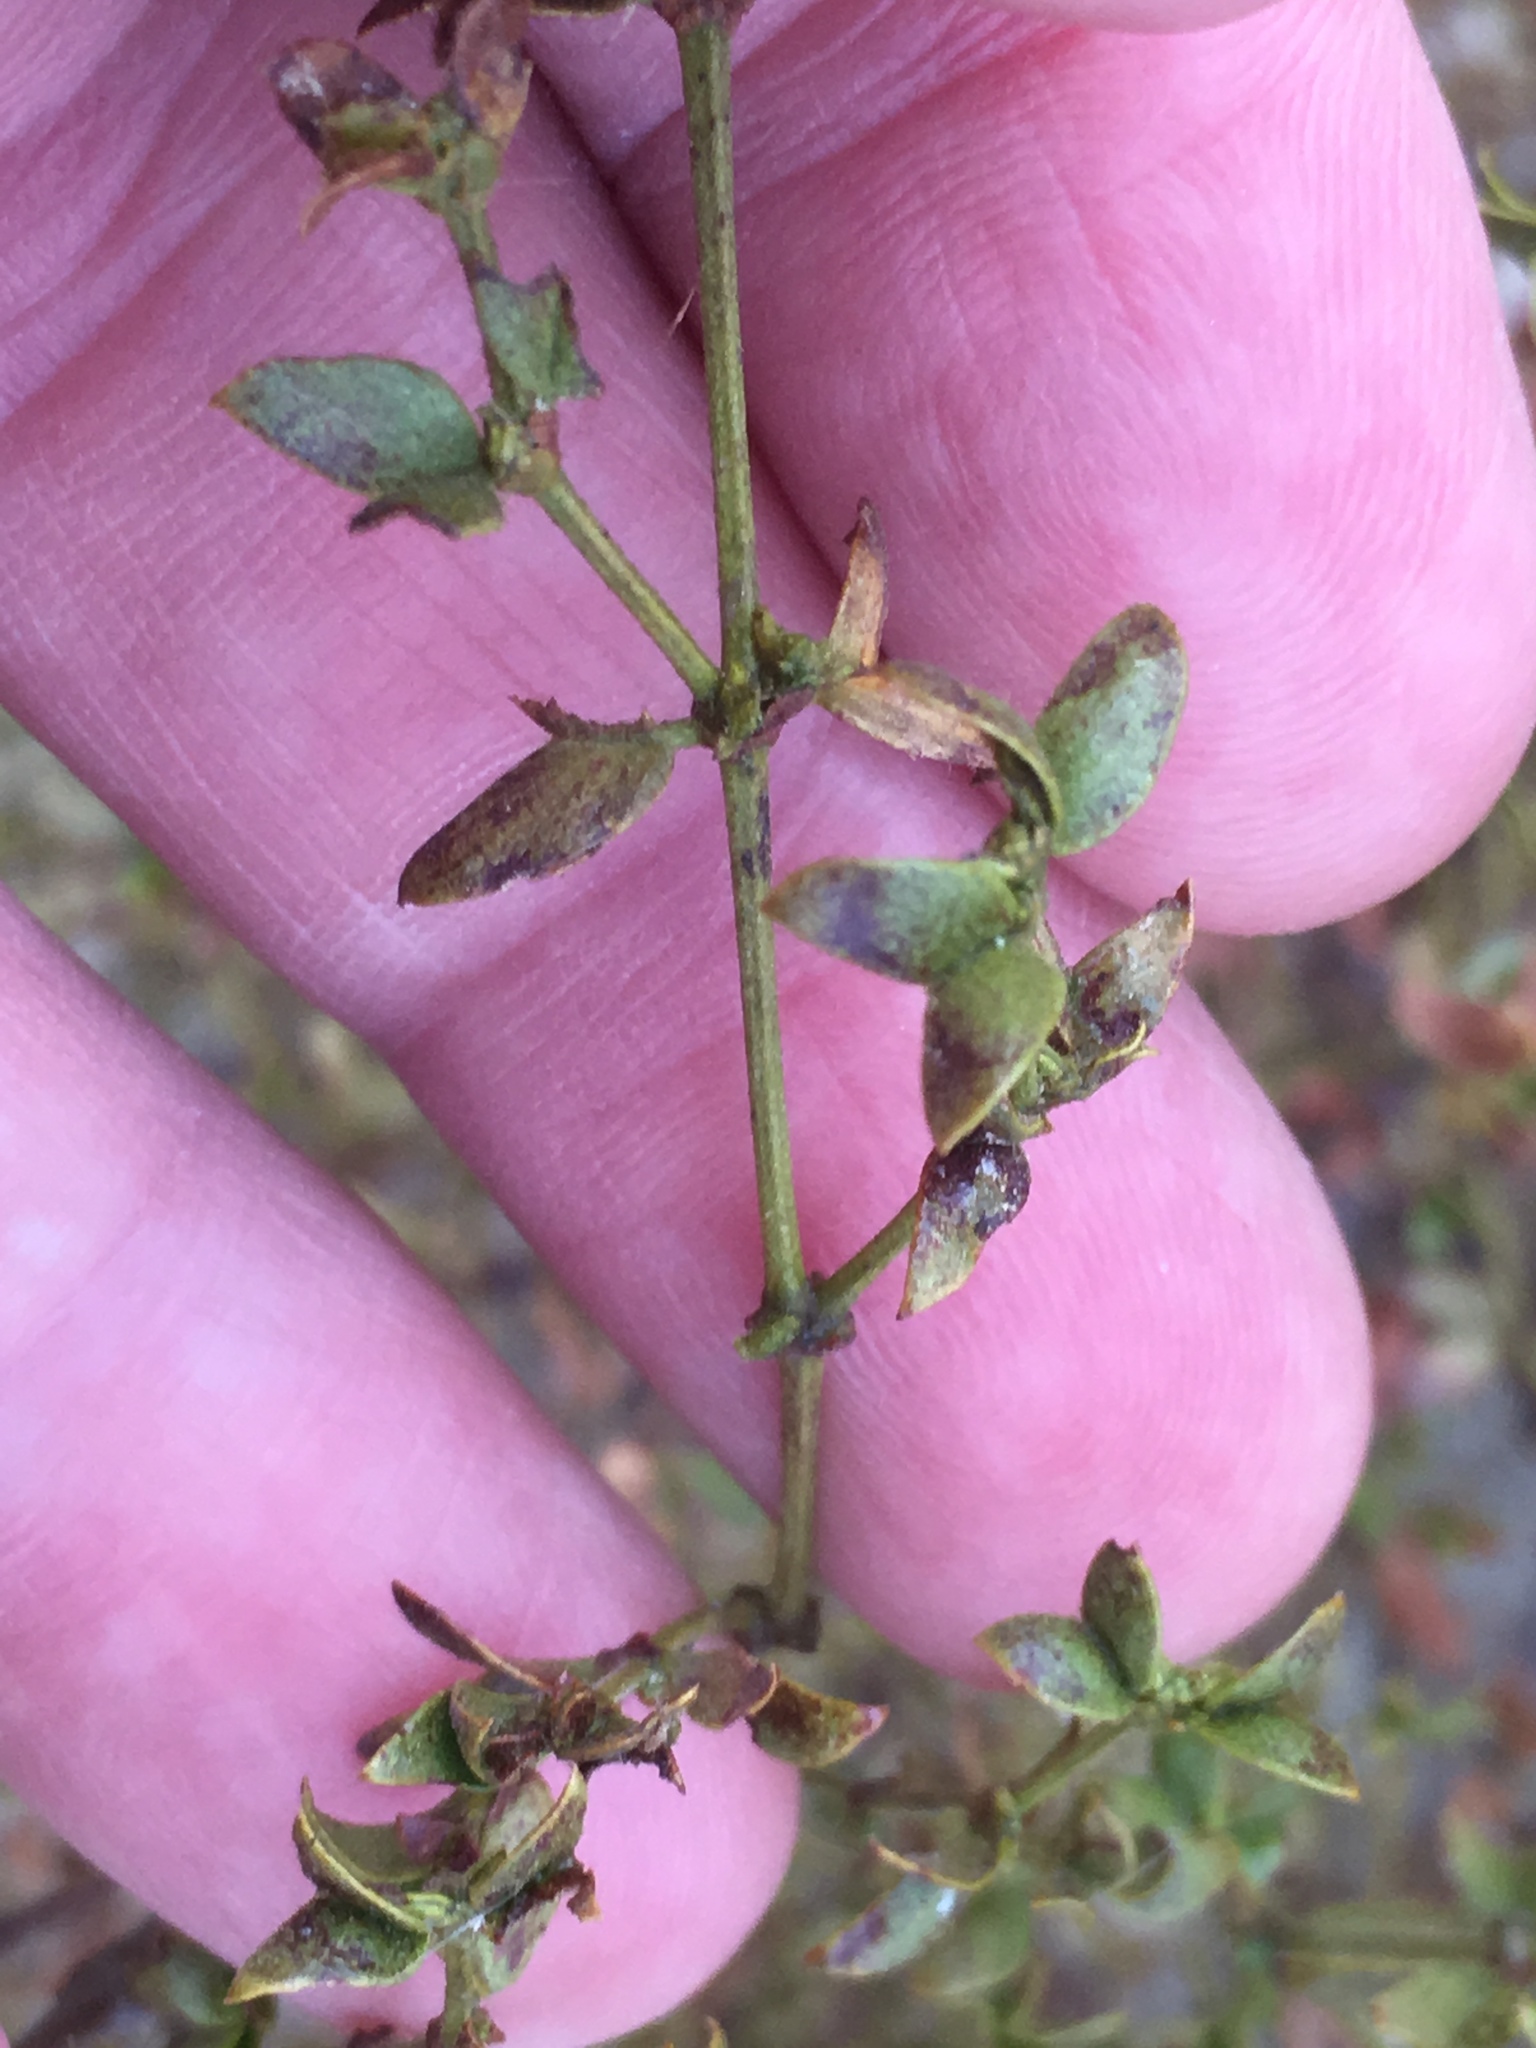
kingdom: Plantae
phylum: Tracheophyta
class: Magnoliopsida
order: Zygophyllales
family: Zygophyllaceae
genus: Larrea
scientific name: Larrea tridentata
